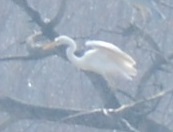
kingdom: Animalia
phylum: Chordata
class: Aves
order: Pelecaniformes
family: Ardeidae
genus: Ardea
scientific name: Ardea alba
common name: Great egret
